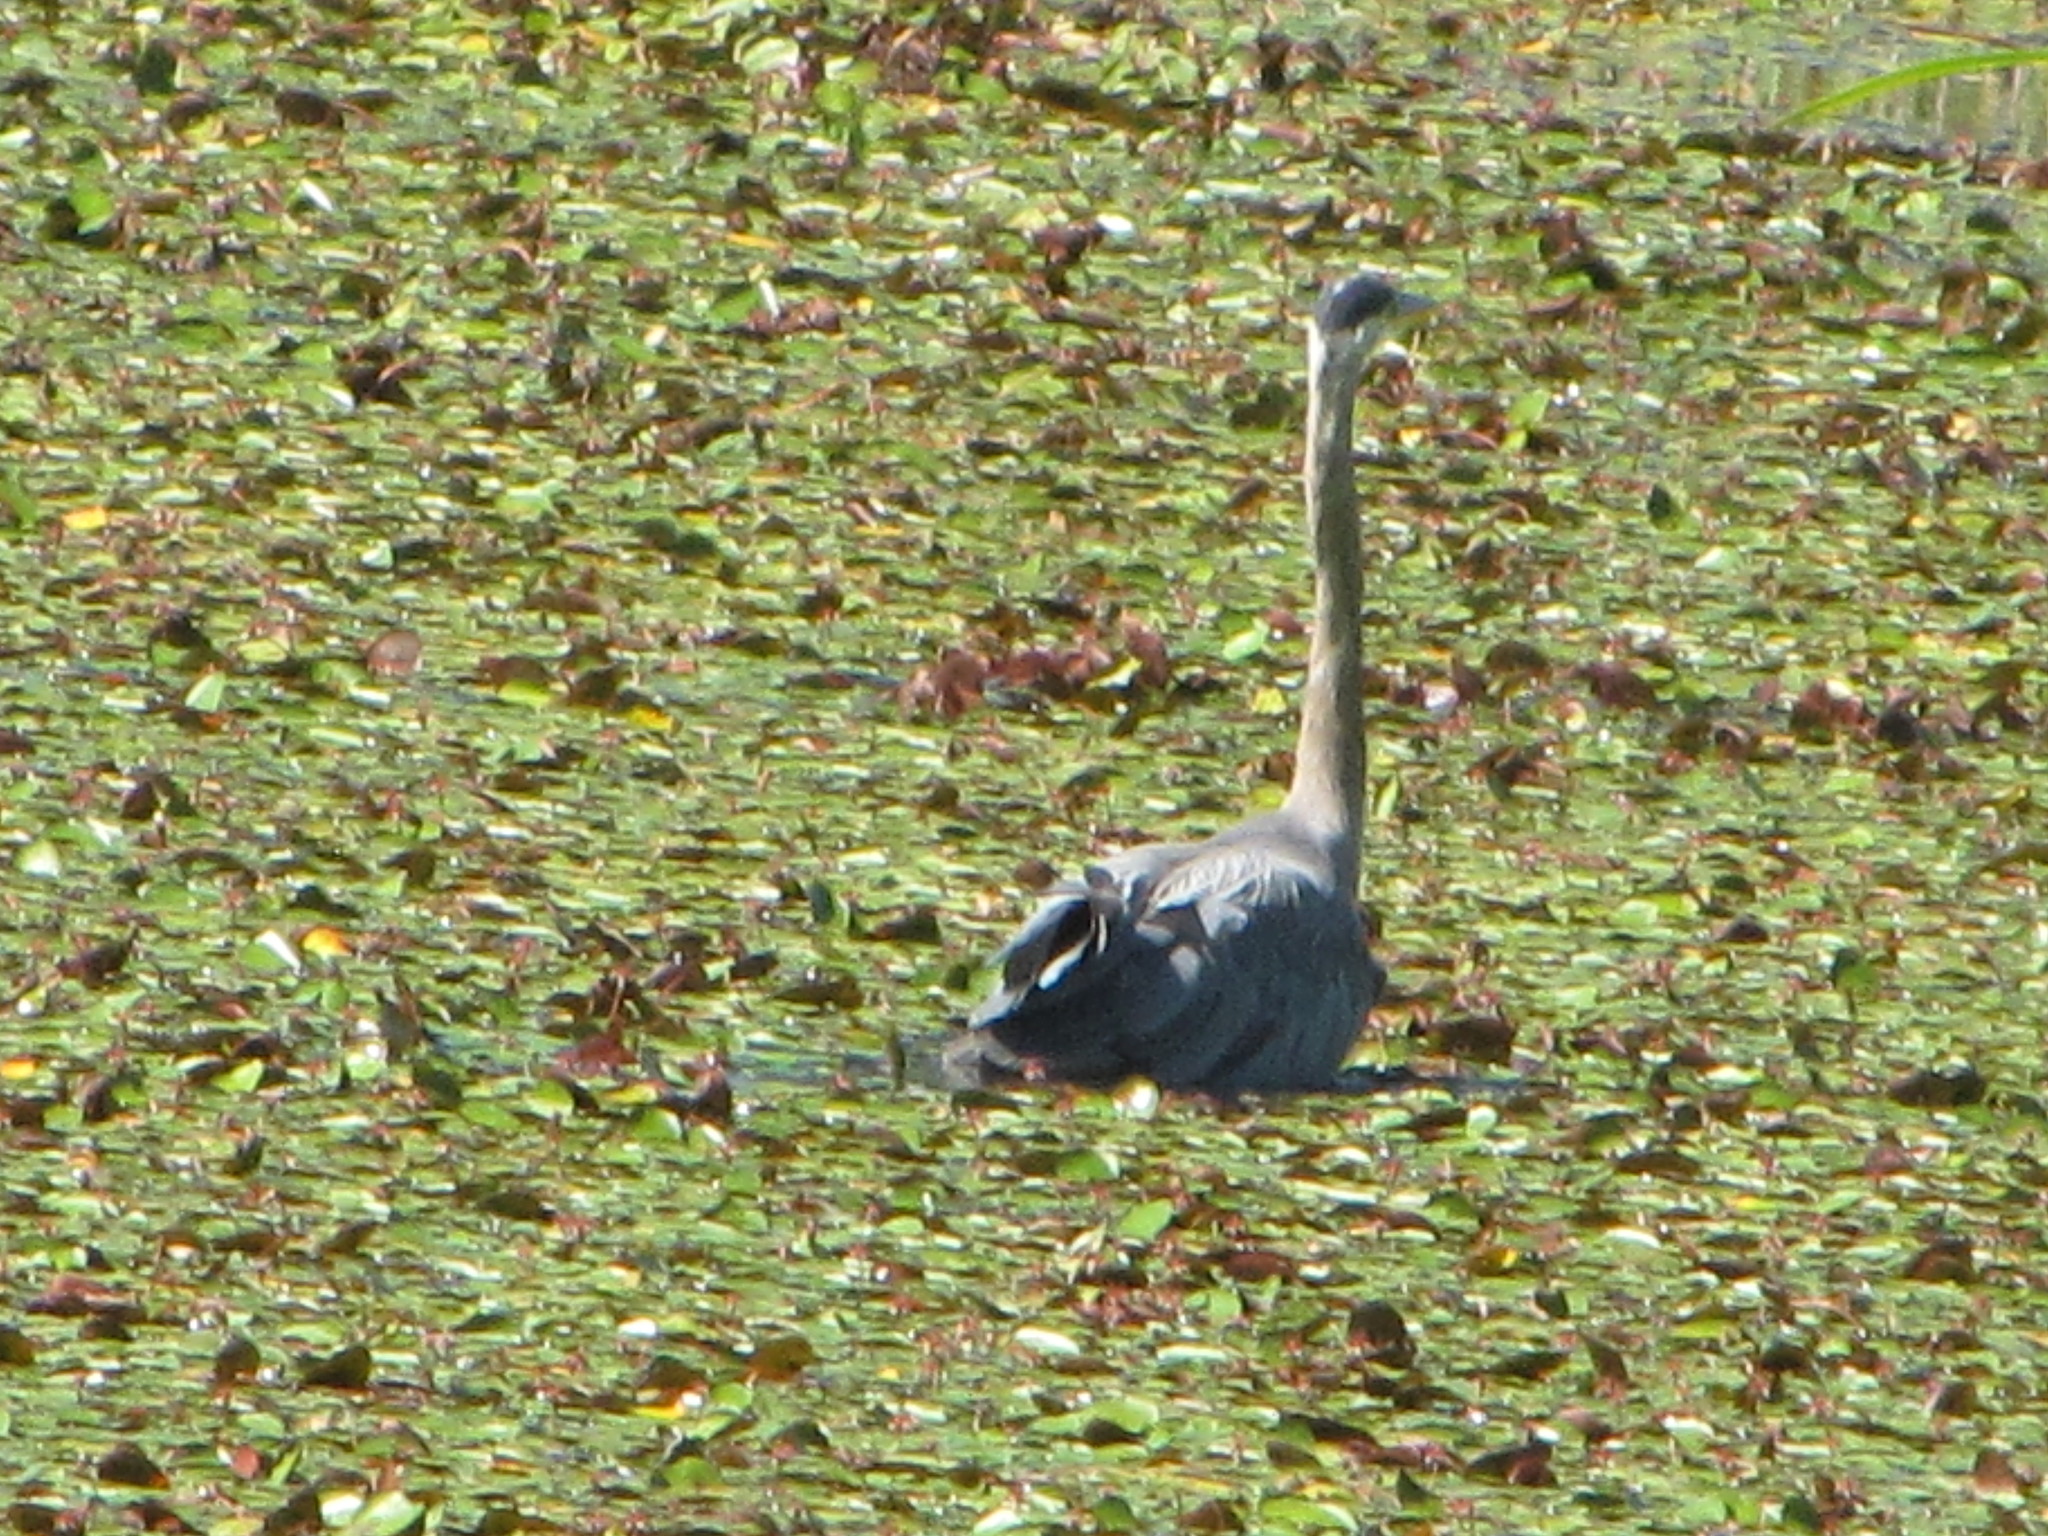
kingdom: Animalia
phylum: Chordata
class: Aves
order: Pelecaniformes
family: Ardeidae
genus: Ardea
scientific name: Ardea herodias
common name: Great blue heron
